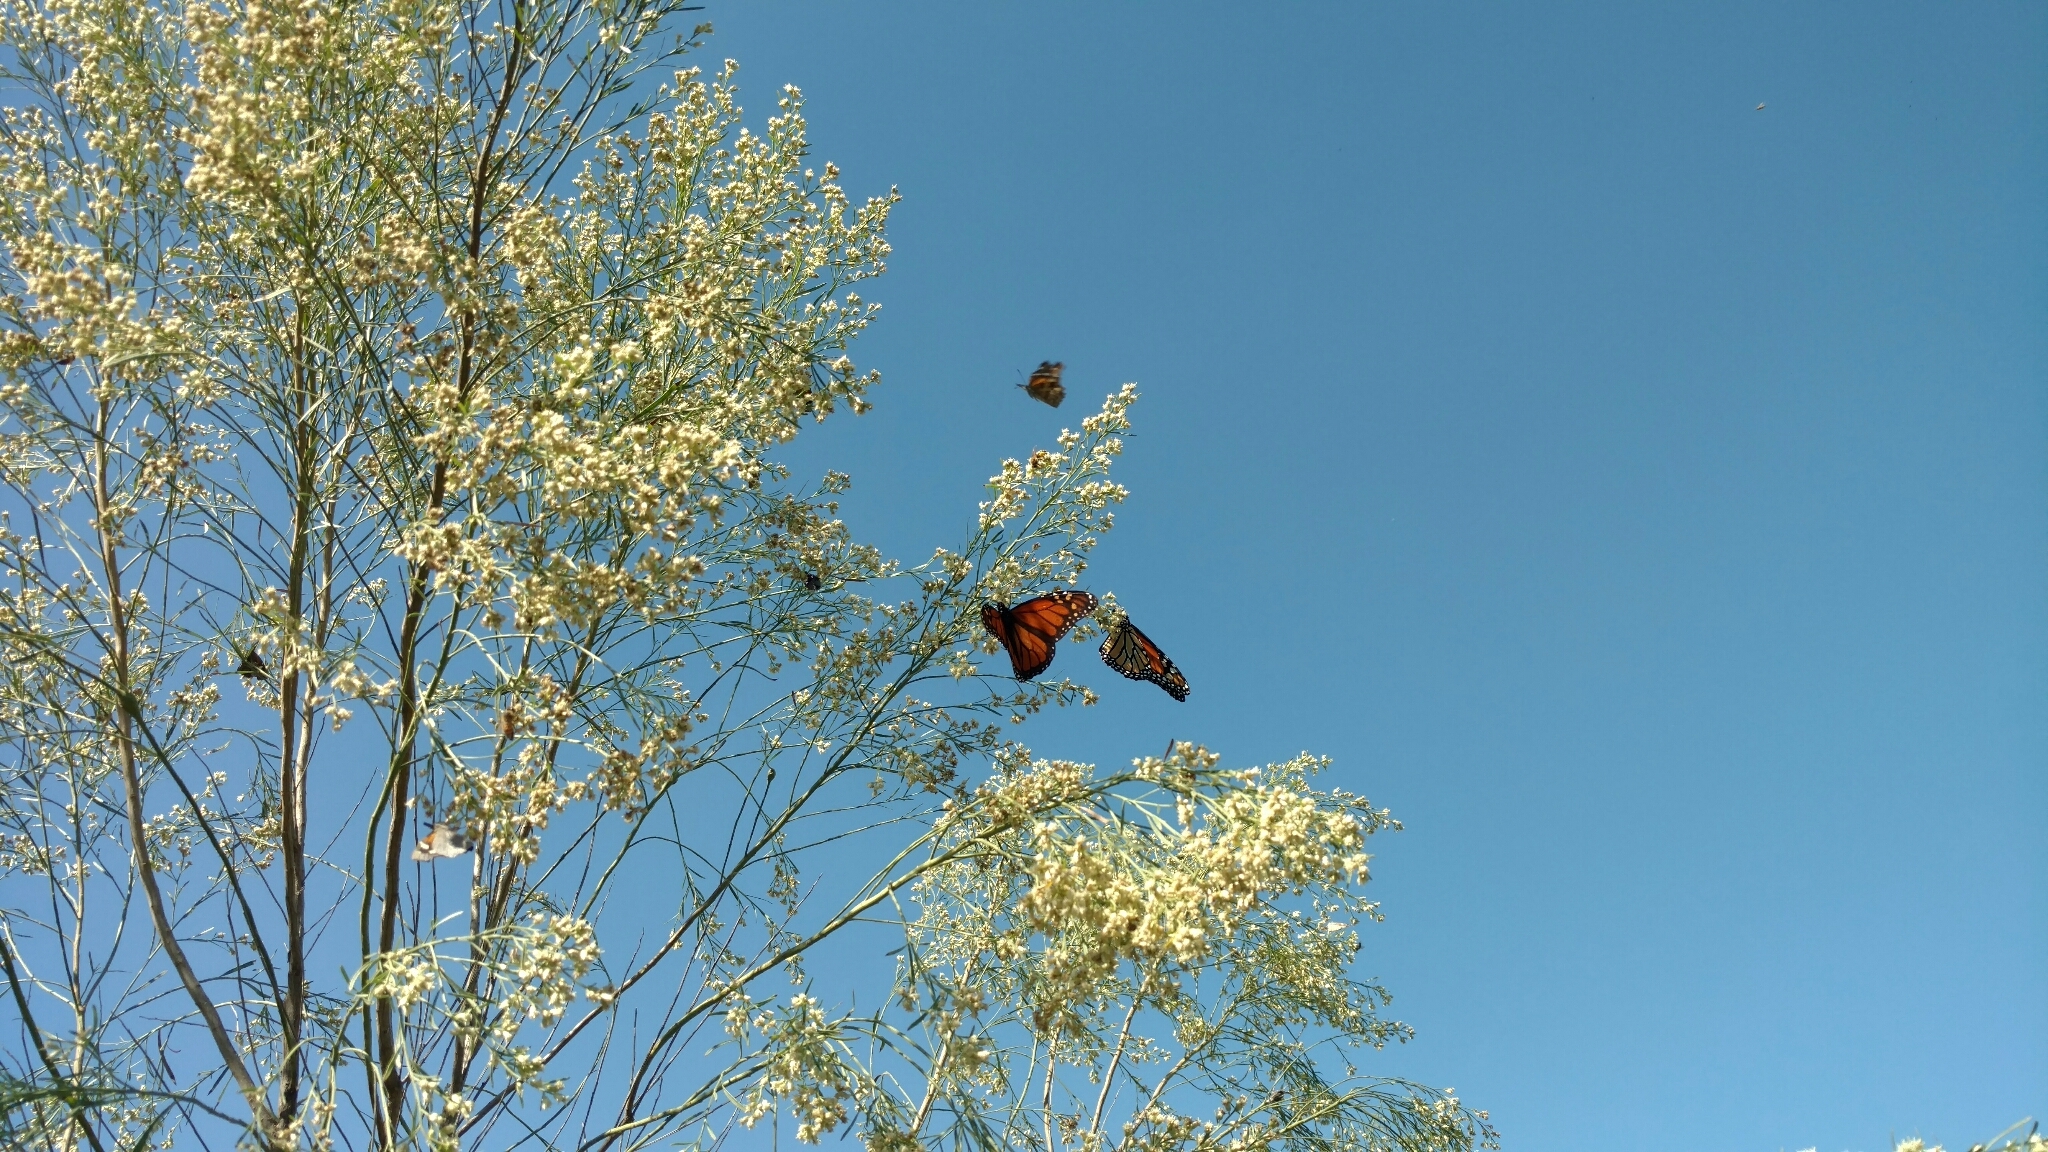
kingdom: Animalia
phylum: Arthropoda
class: Insecta
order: Lepidoptera
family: Nymphalidae
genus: Danaus
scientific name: Danaus plexippus
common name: Monarch
